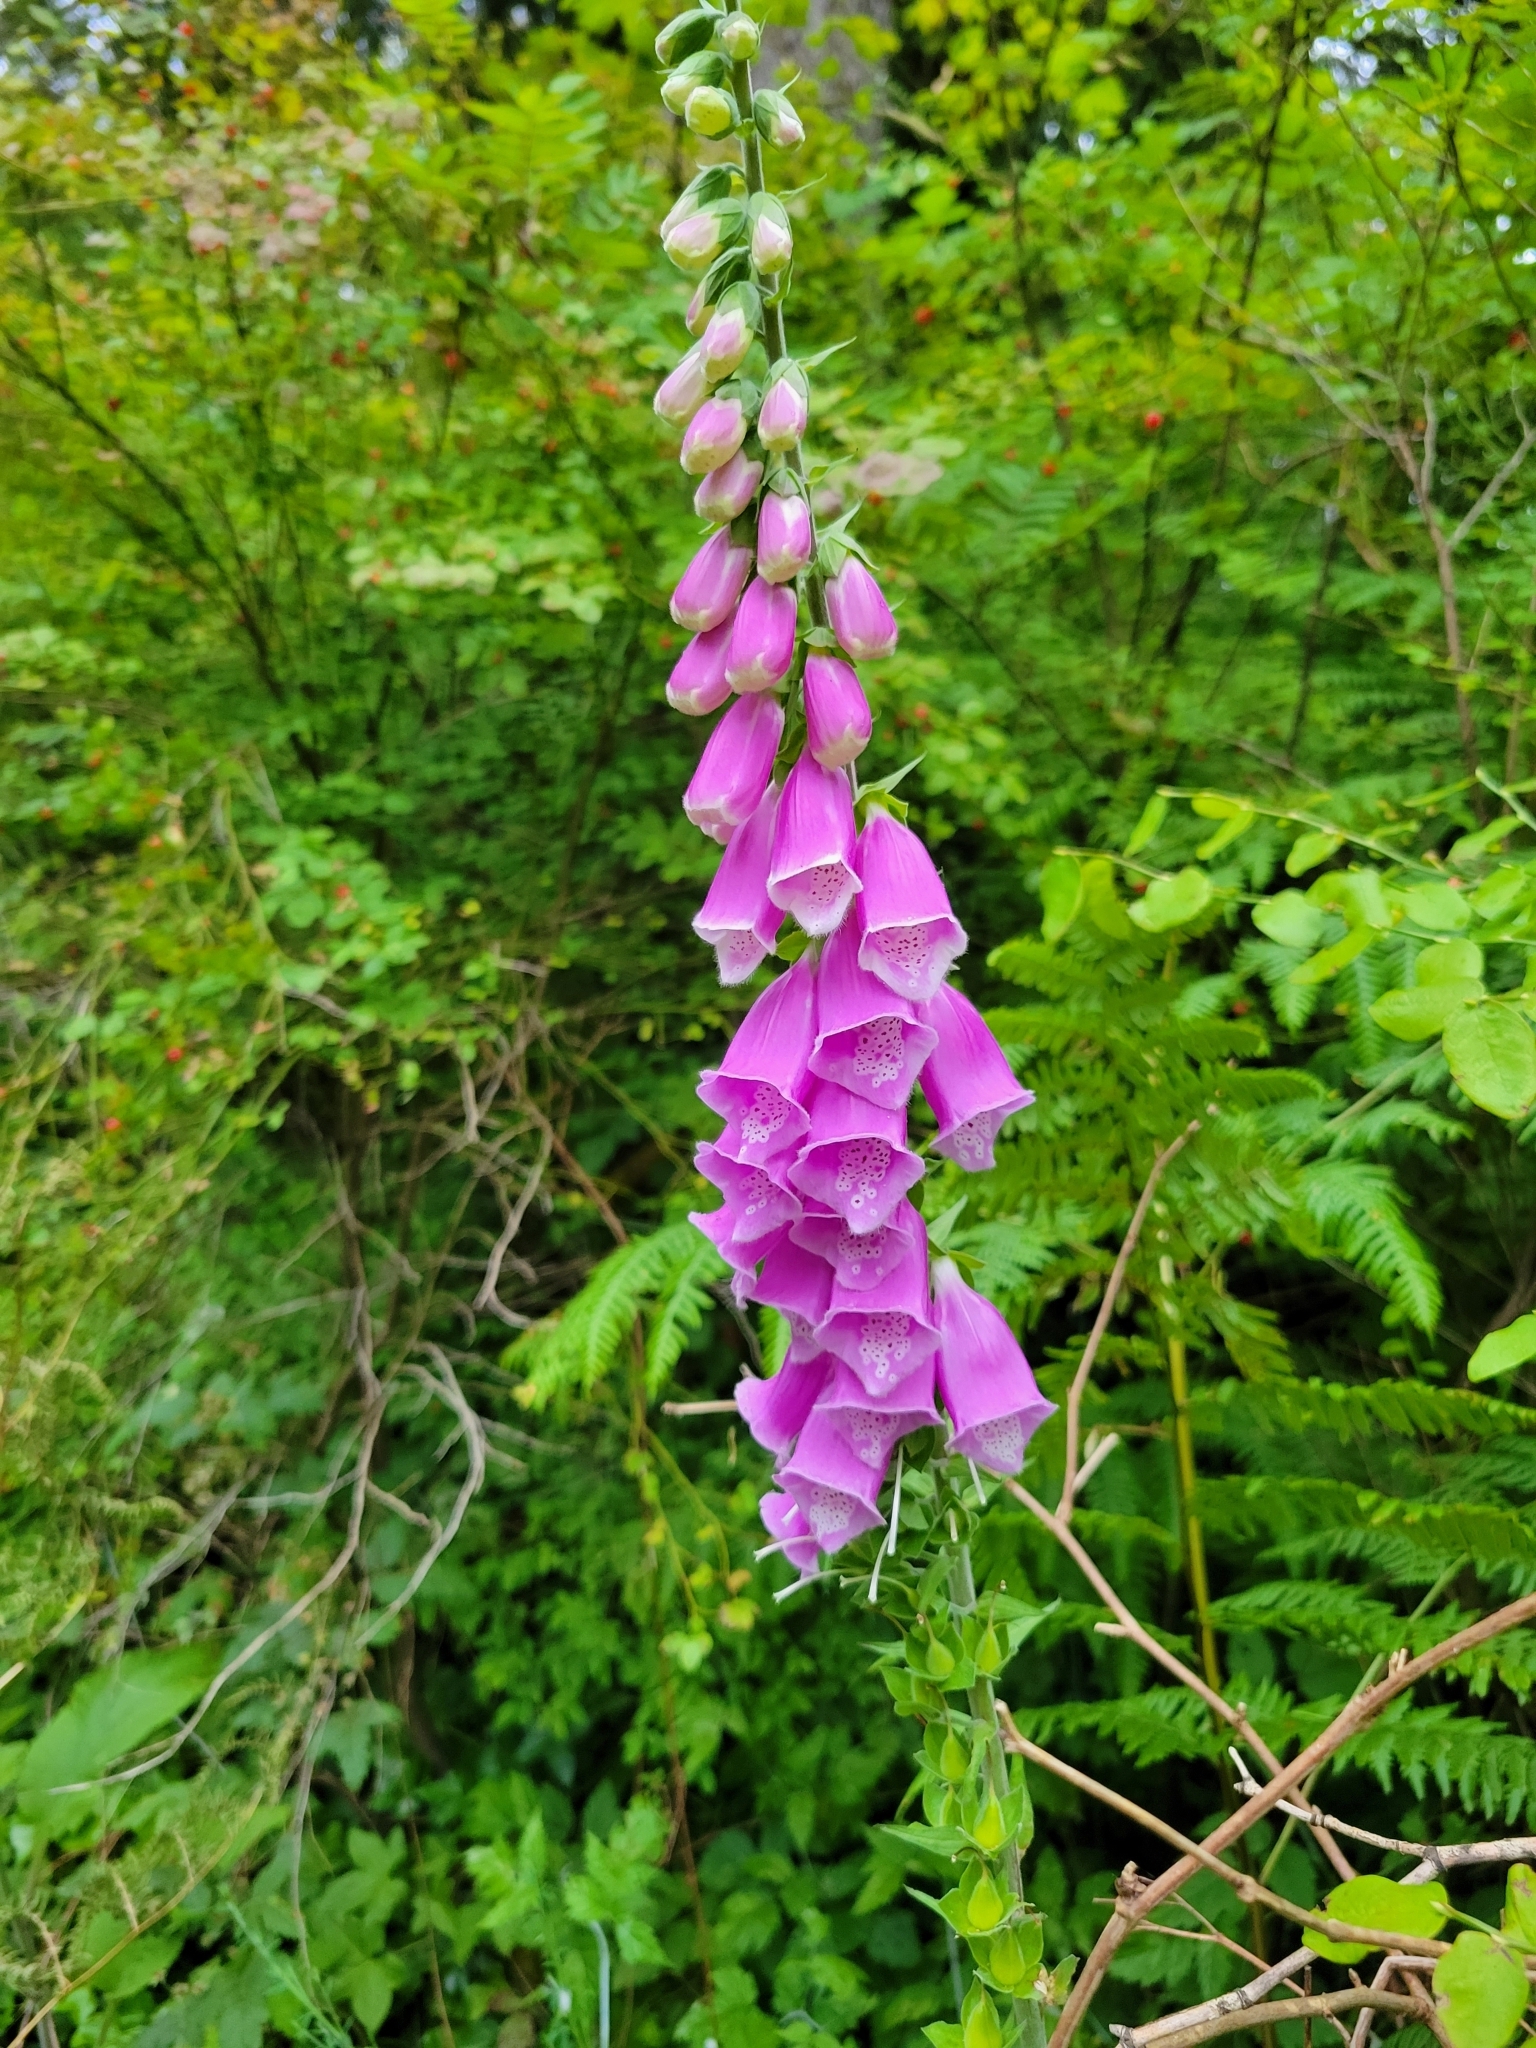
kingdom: Plantae
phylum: Tracheophyta
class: Magnoliopsida
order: Lamiales
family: Plantaginaceae
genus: Digitalis
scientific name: Digitalis purpurea
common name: Foxglove
